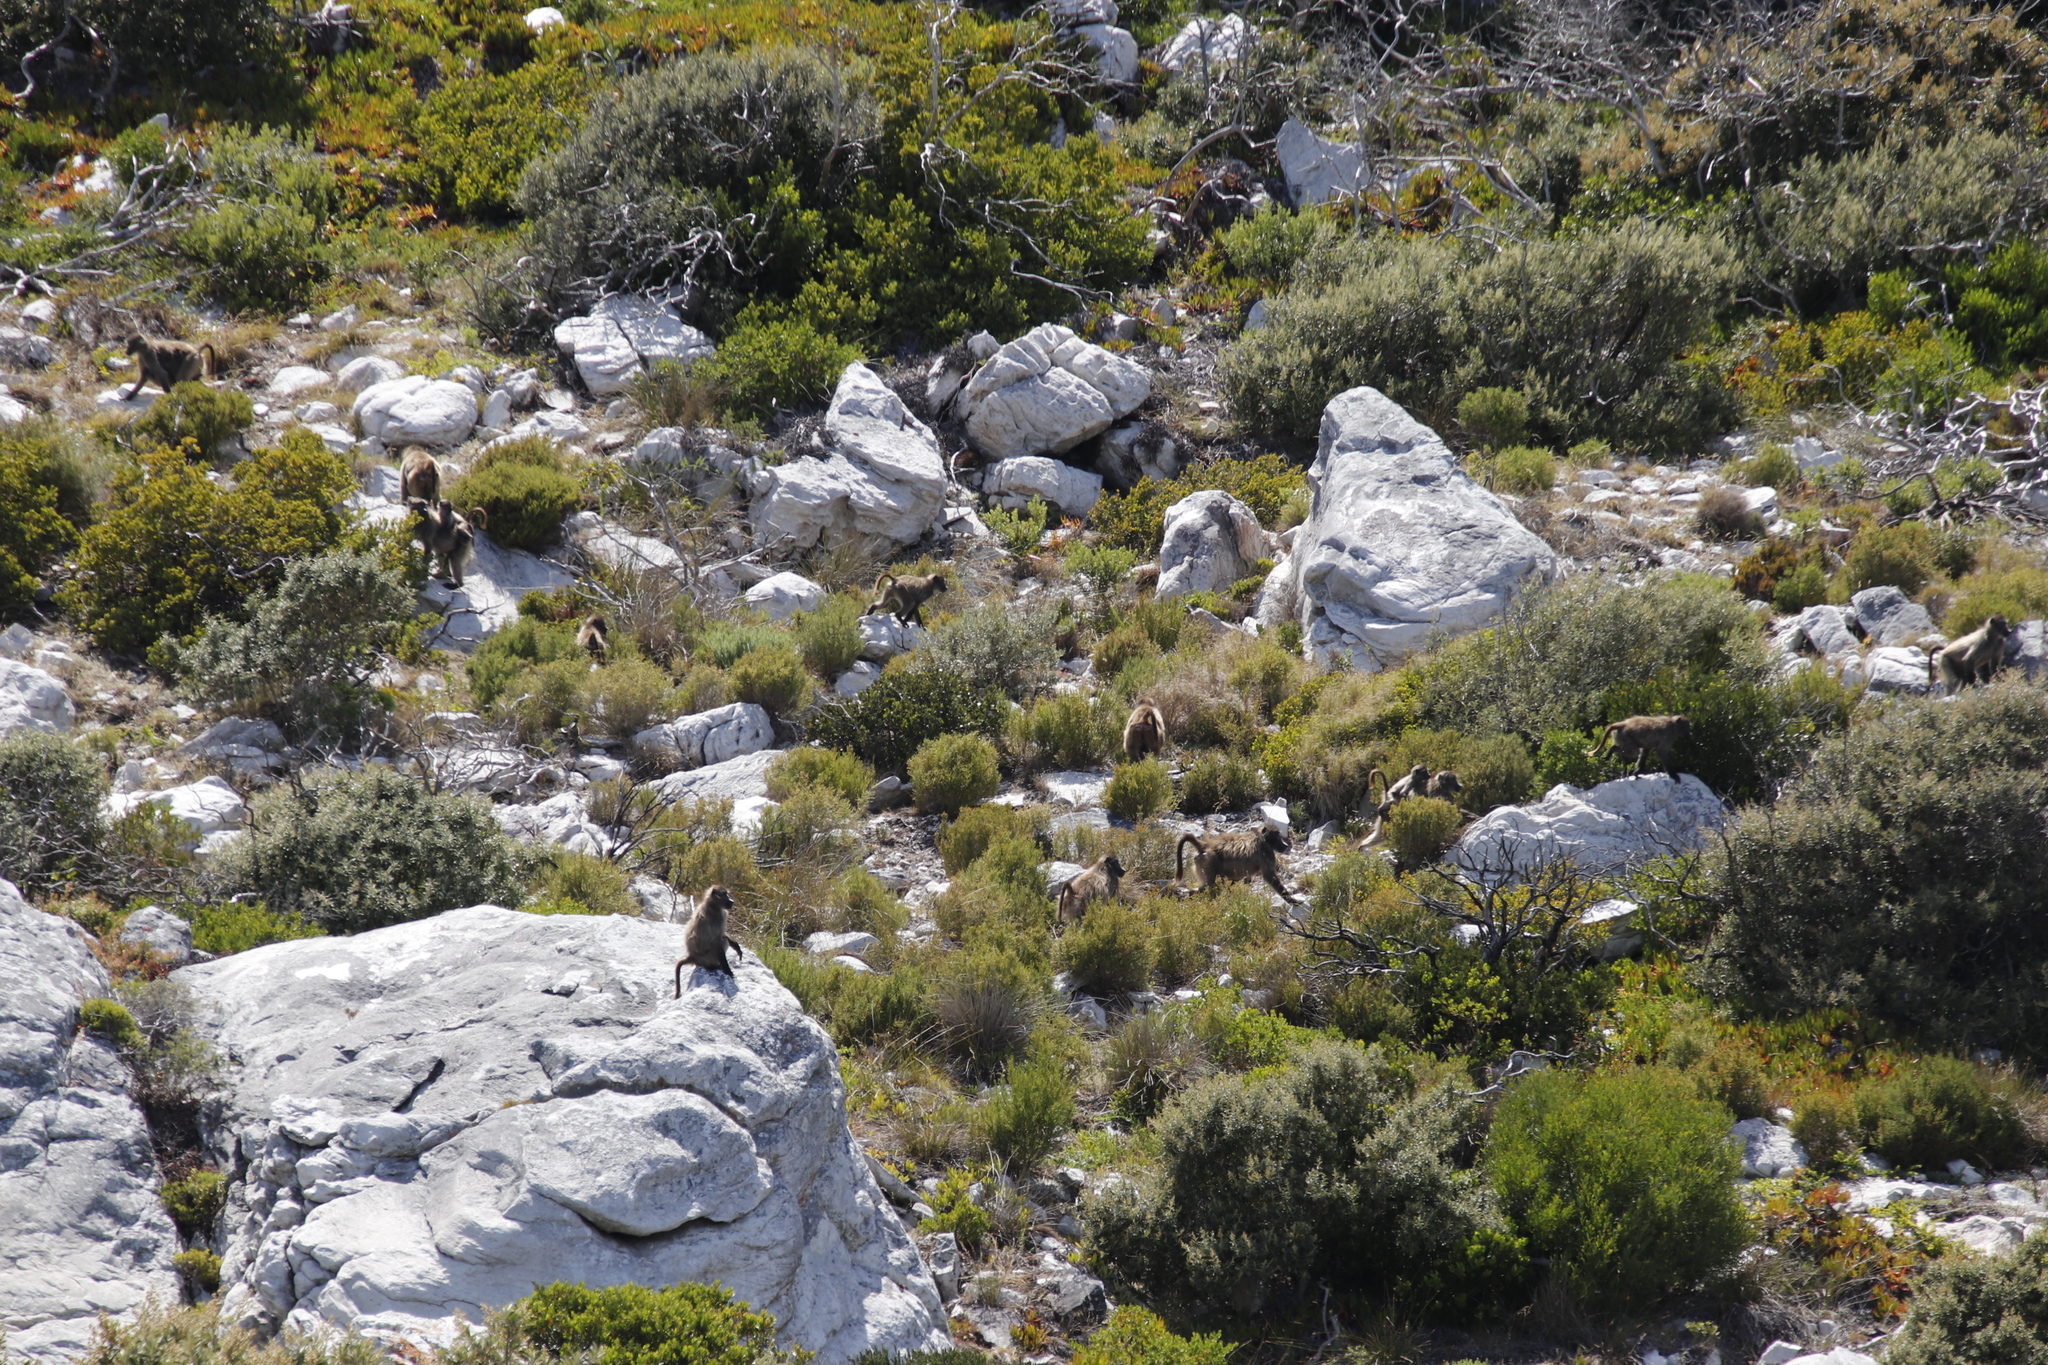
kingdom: Animalia
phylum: Chordata
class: Mammalia
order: Primates
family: Cercopithecidae
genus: Papio
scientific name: Papio ursinus
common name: Chacma baboon
